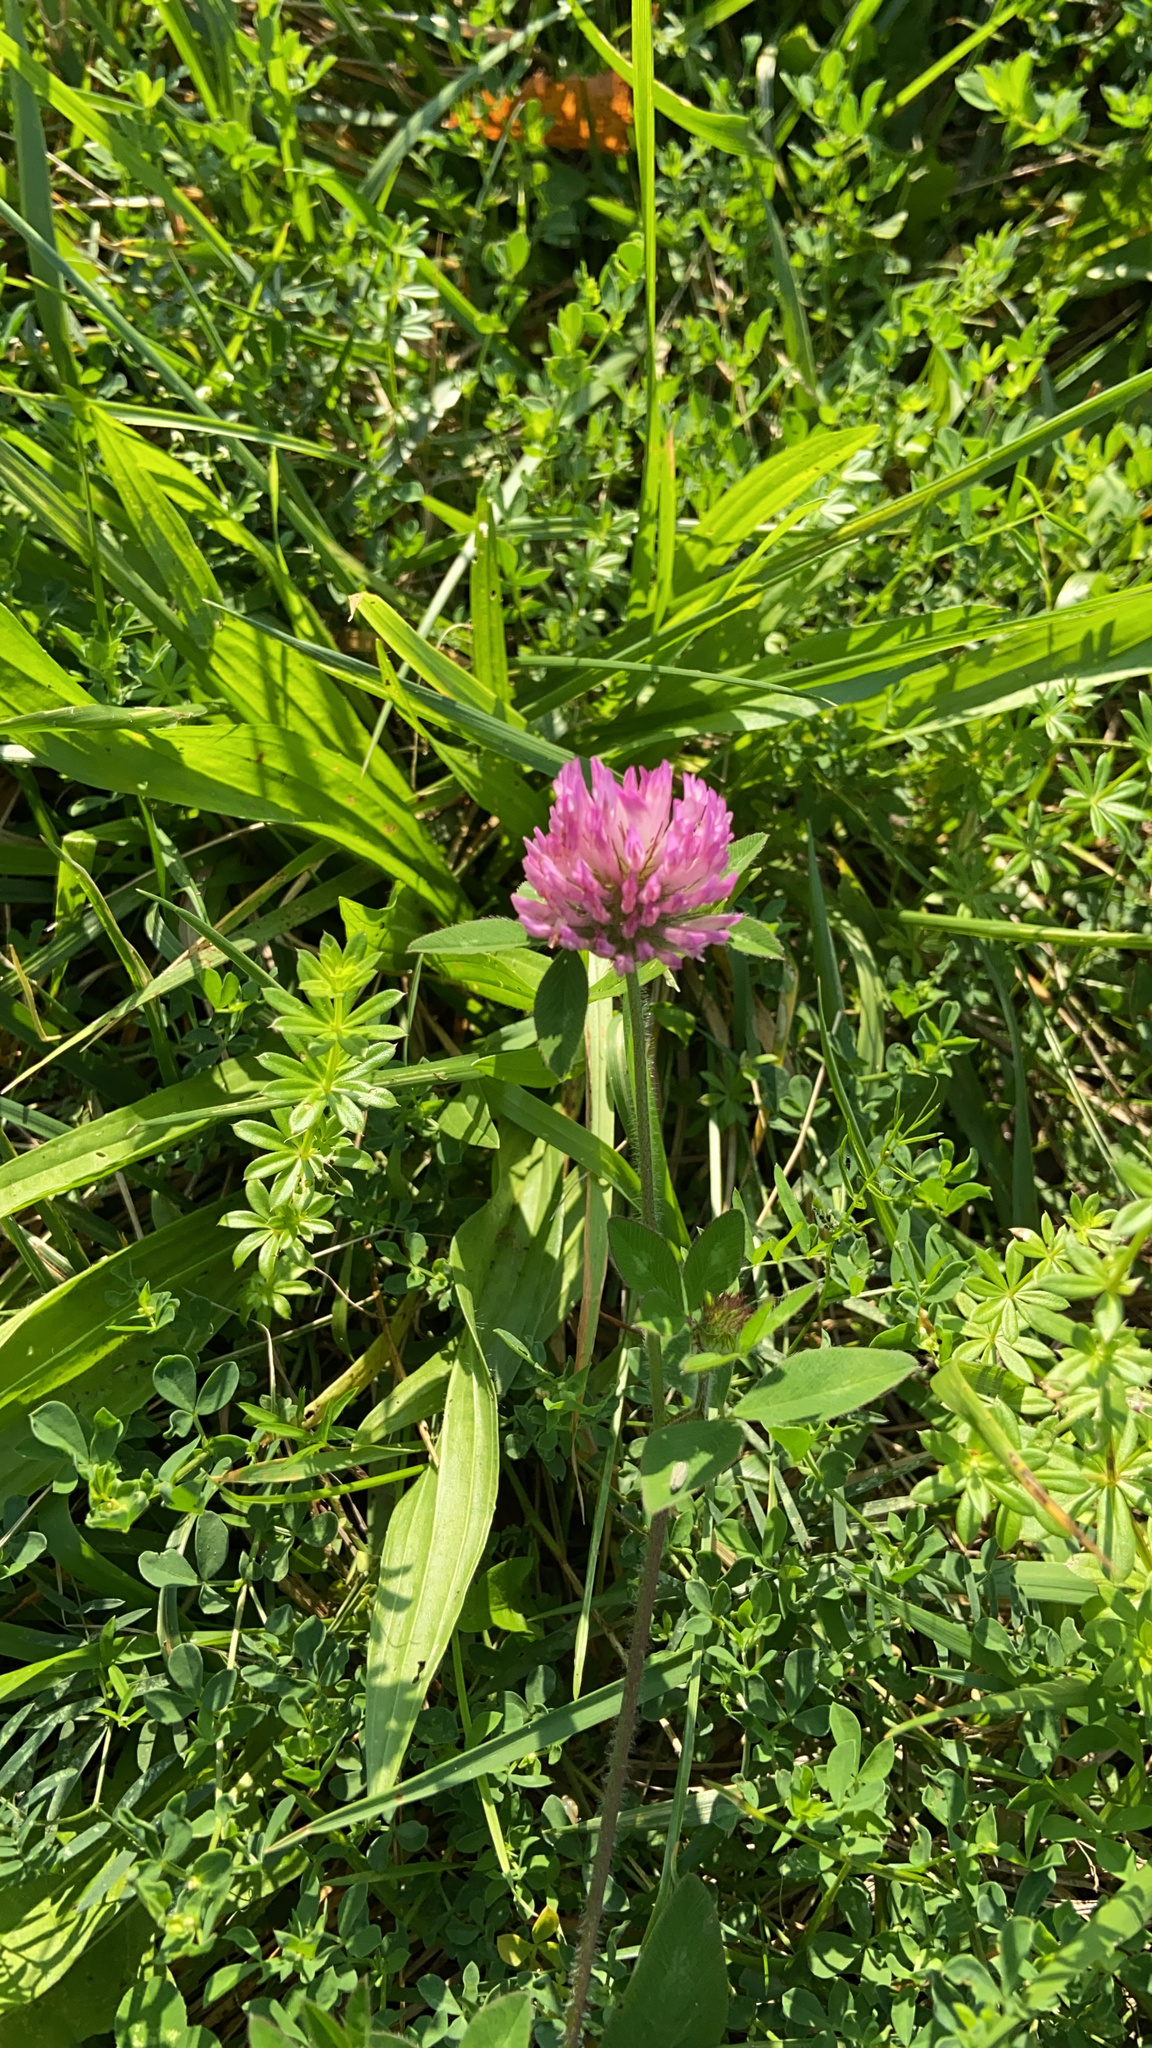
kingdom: Plantae
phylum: Tracheophyta
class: Magnoliopsida
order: Fabales
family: Fabaceae
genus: Trifolium
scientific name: Trifolium pratense
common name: Red clover
